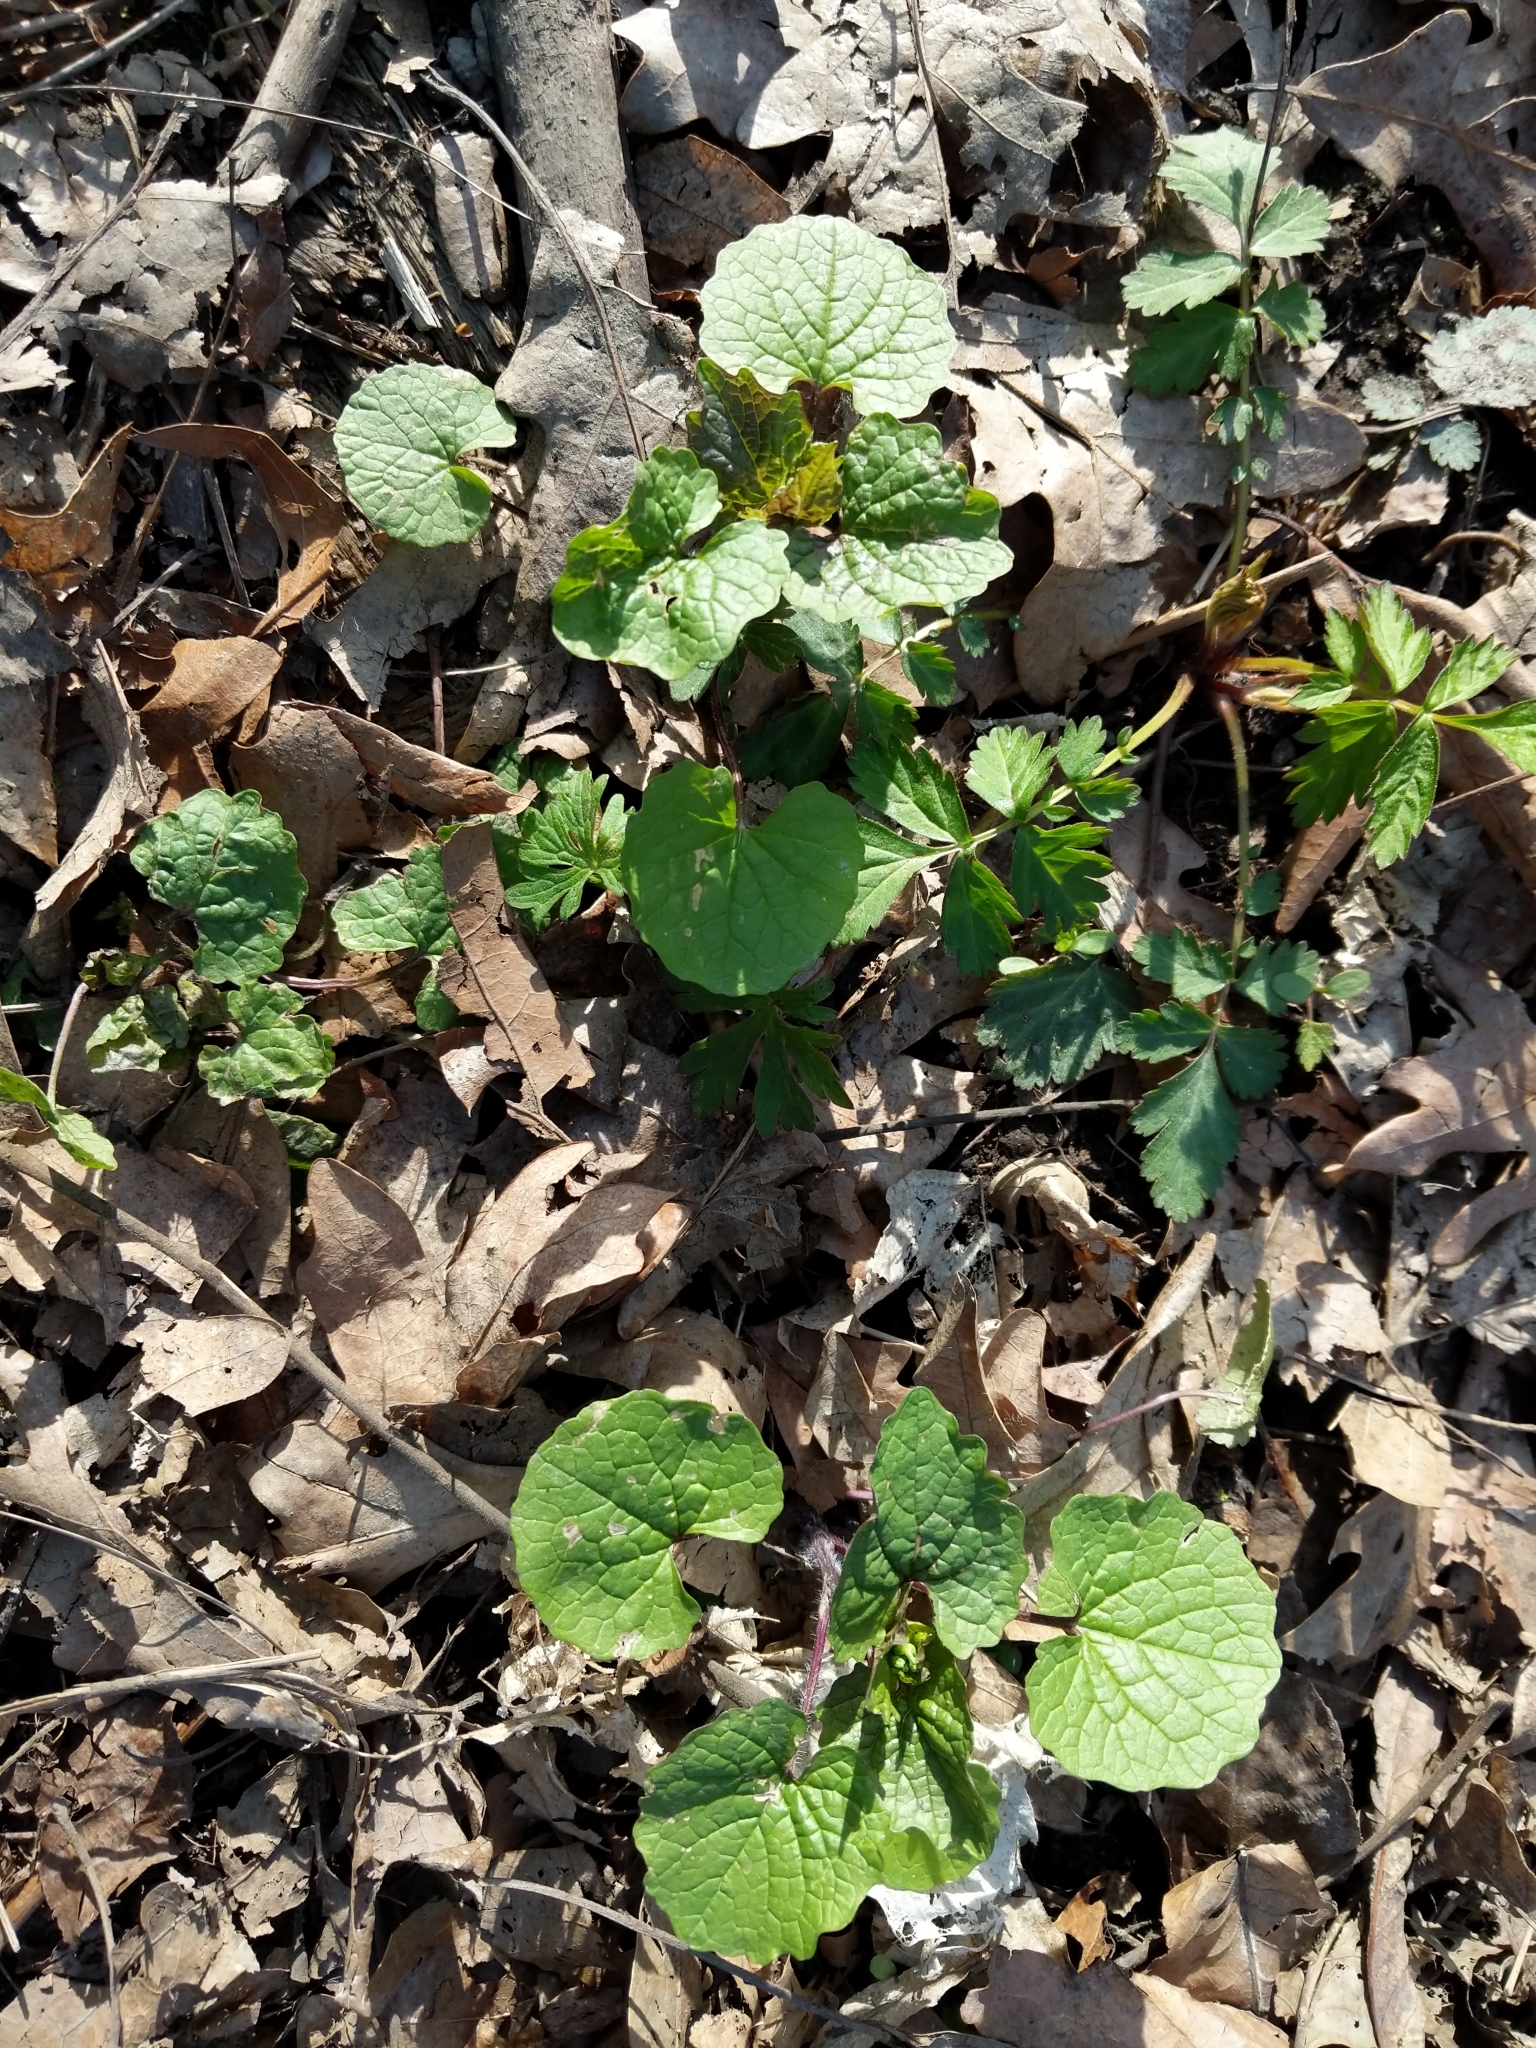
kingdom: Plantae
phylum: Tracheophyta
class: Magnoliopsida
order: Brassicales
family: Brassicaceae
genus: Alliaria
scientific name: Alliaria petiolata
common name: Garlic mustard
